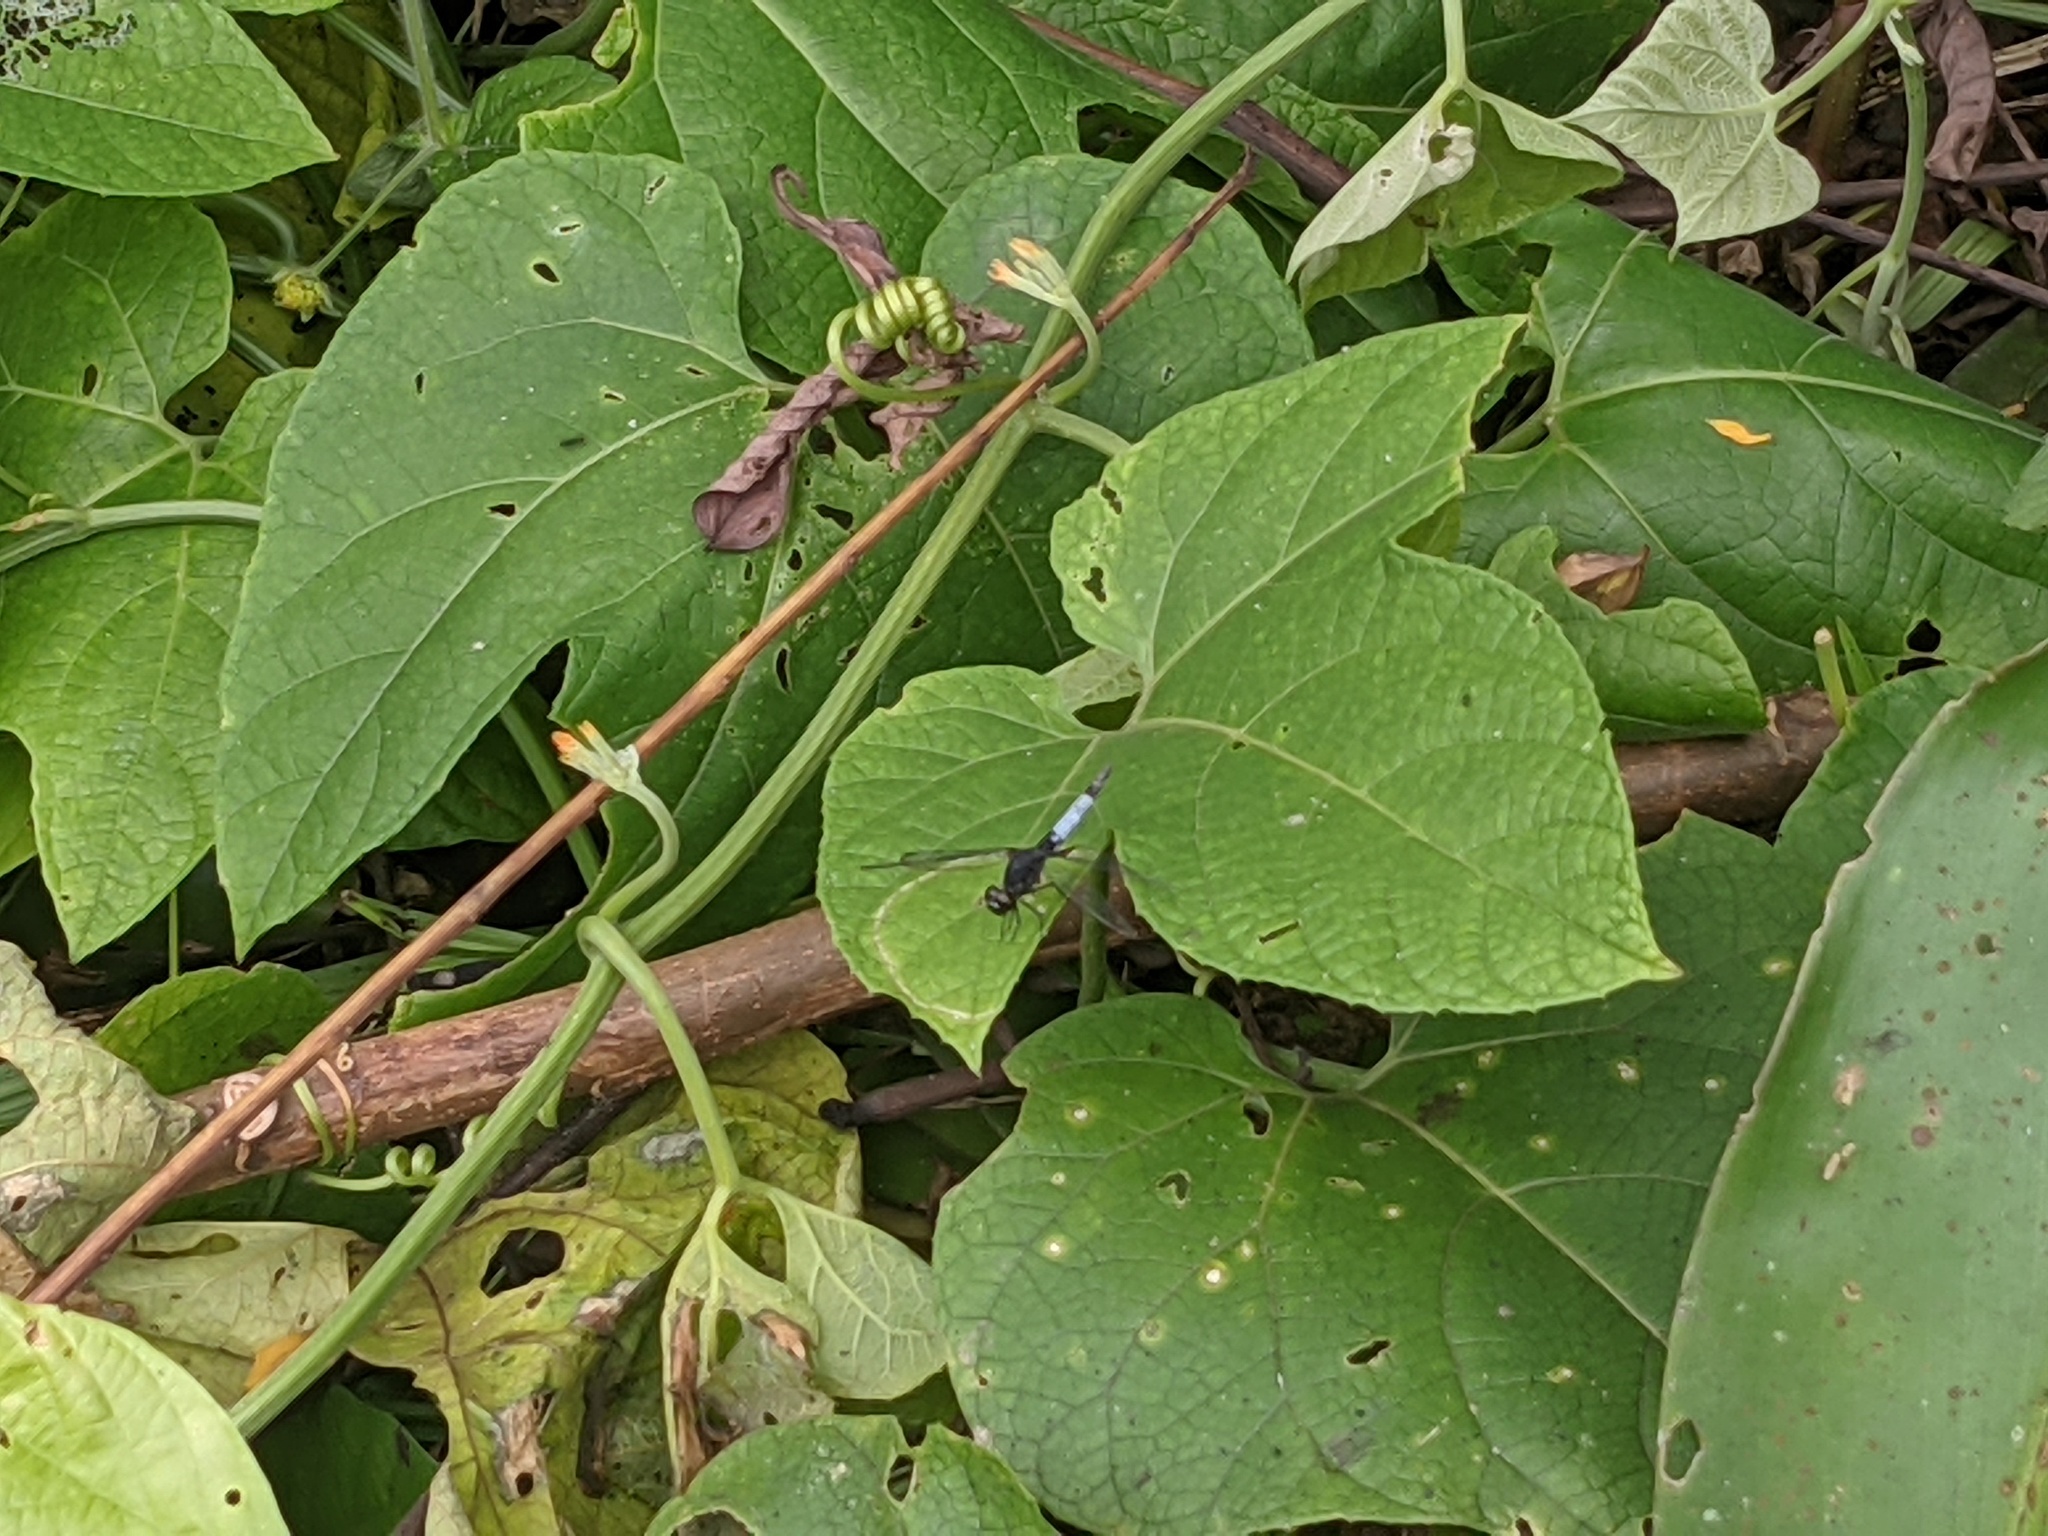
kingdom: Animalia
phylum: Arthropoda
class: Insecta
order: Odonata
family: Libellulidae
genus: Erythrodiplax
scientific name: Erythrodiplax unimaculata
